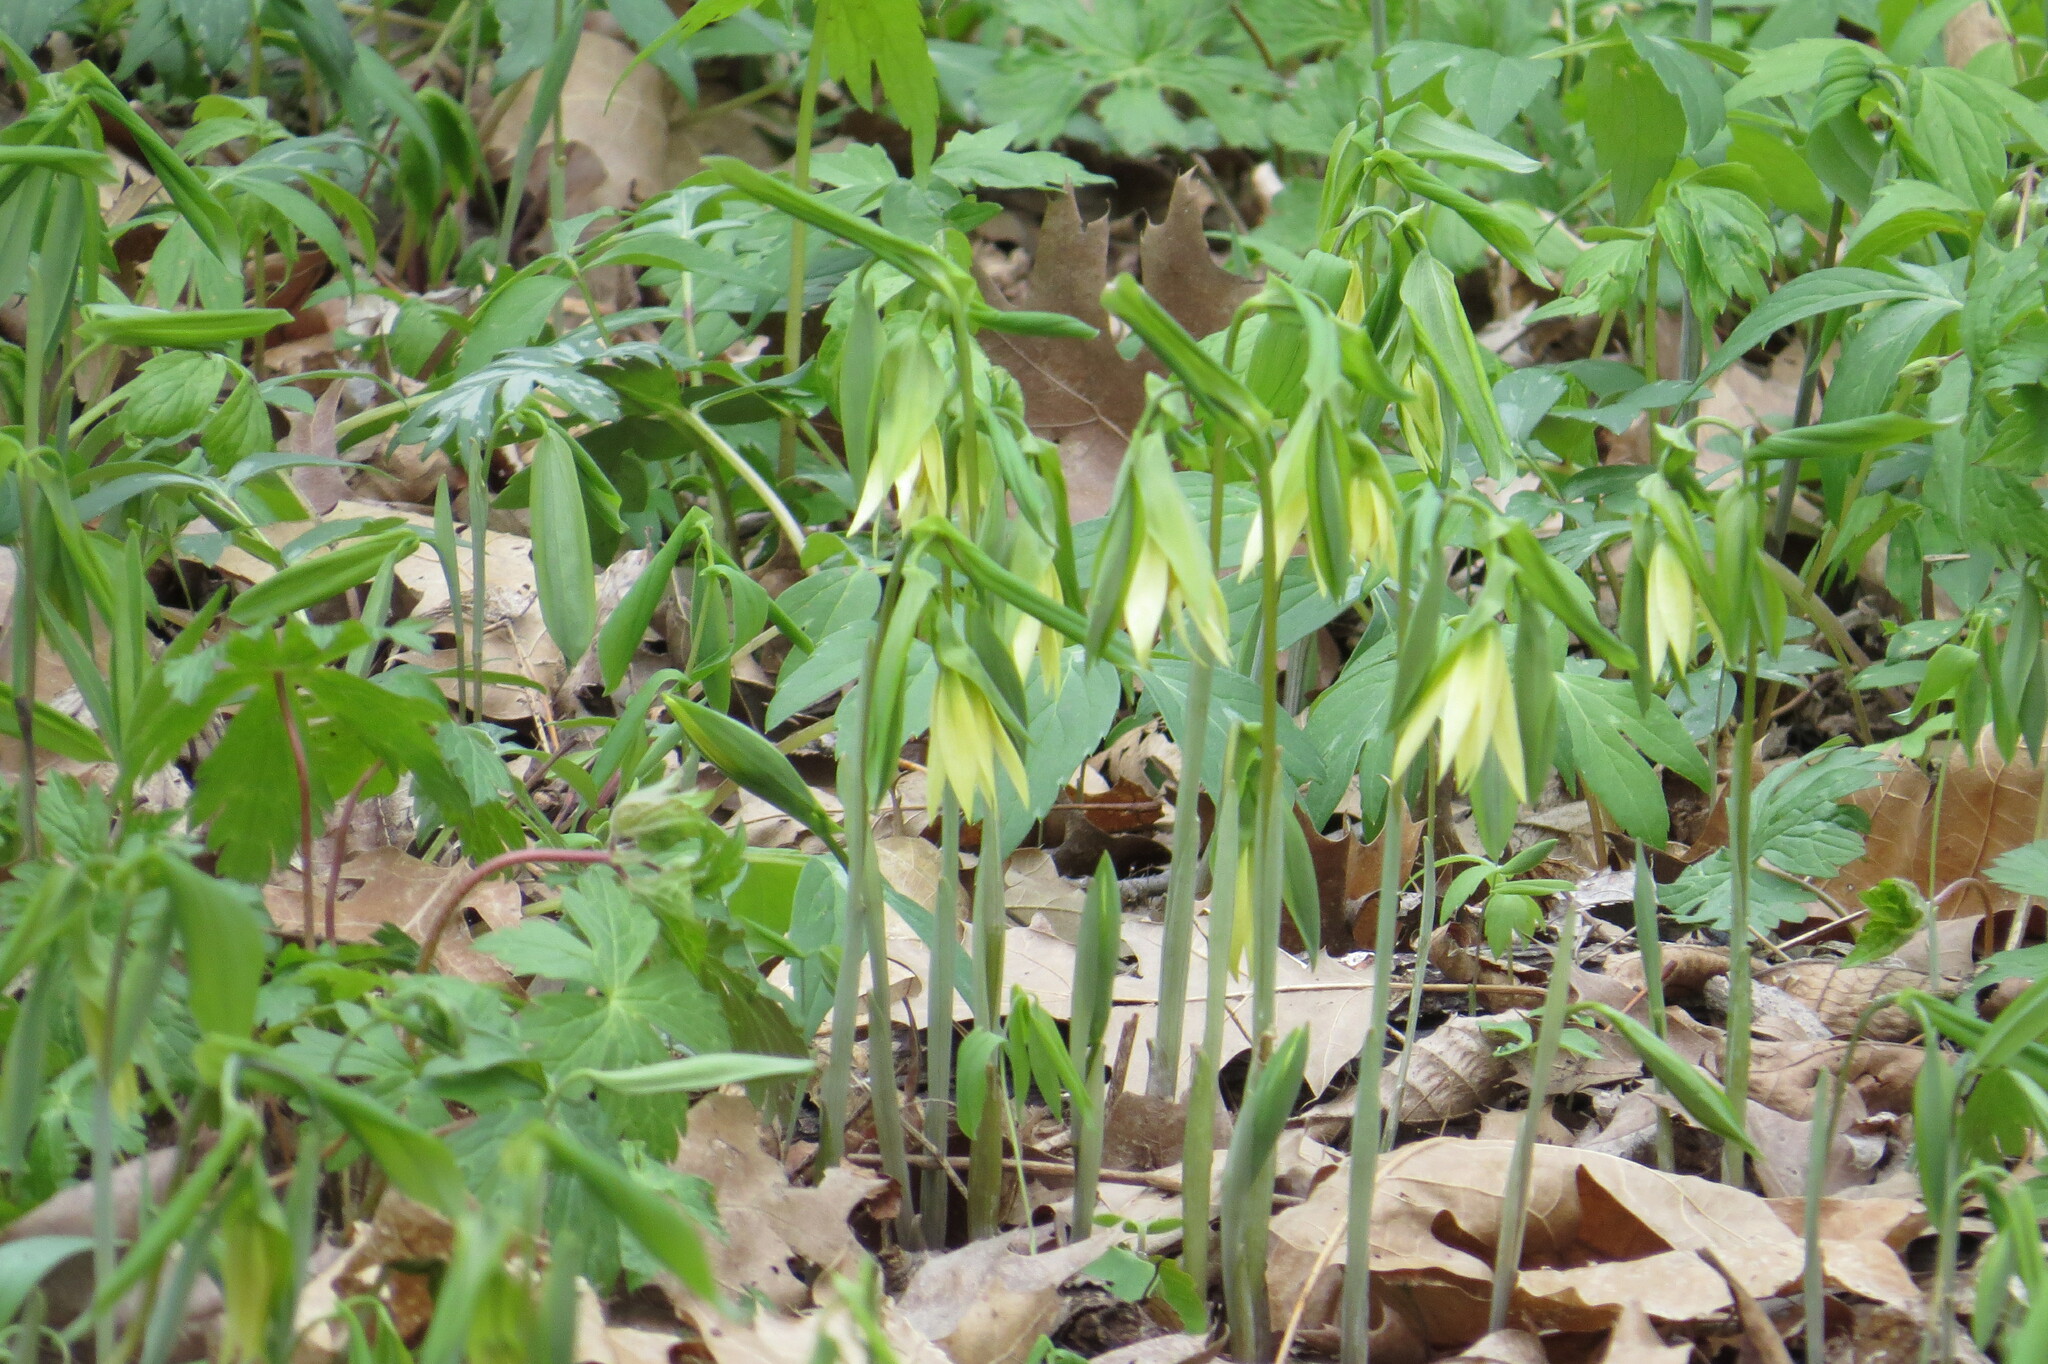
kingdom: Plantae
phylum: Tracheophyta
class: Liliopsida
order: Liliales
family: Colchicaceae
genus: Uvularia
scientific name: Uvularia grandiflora
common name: Bellwort
